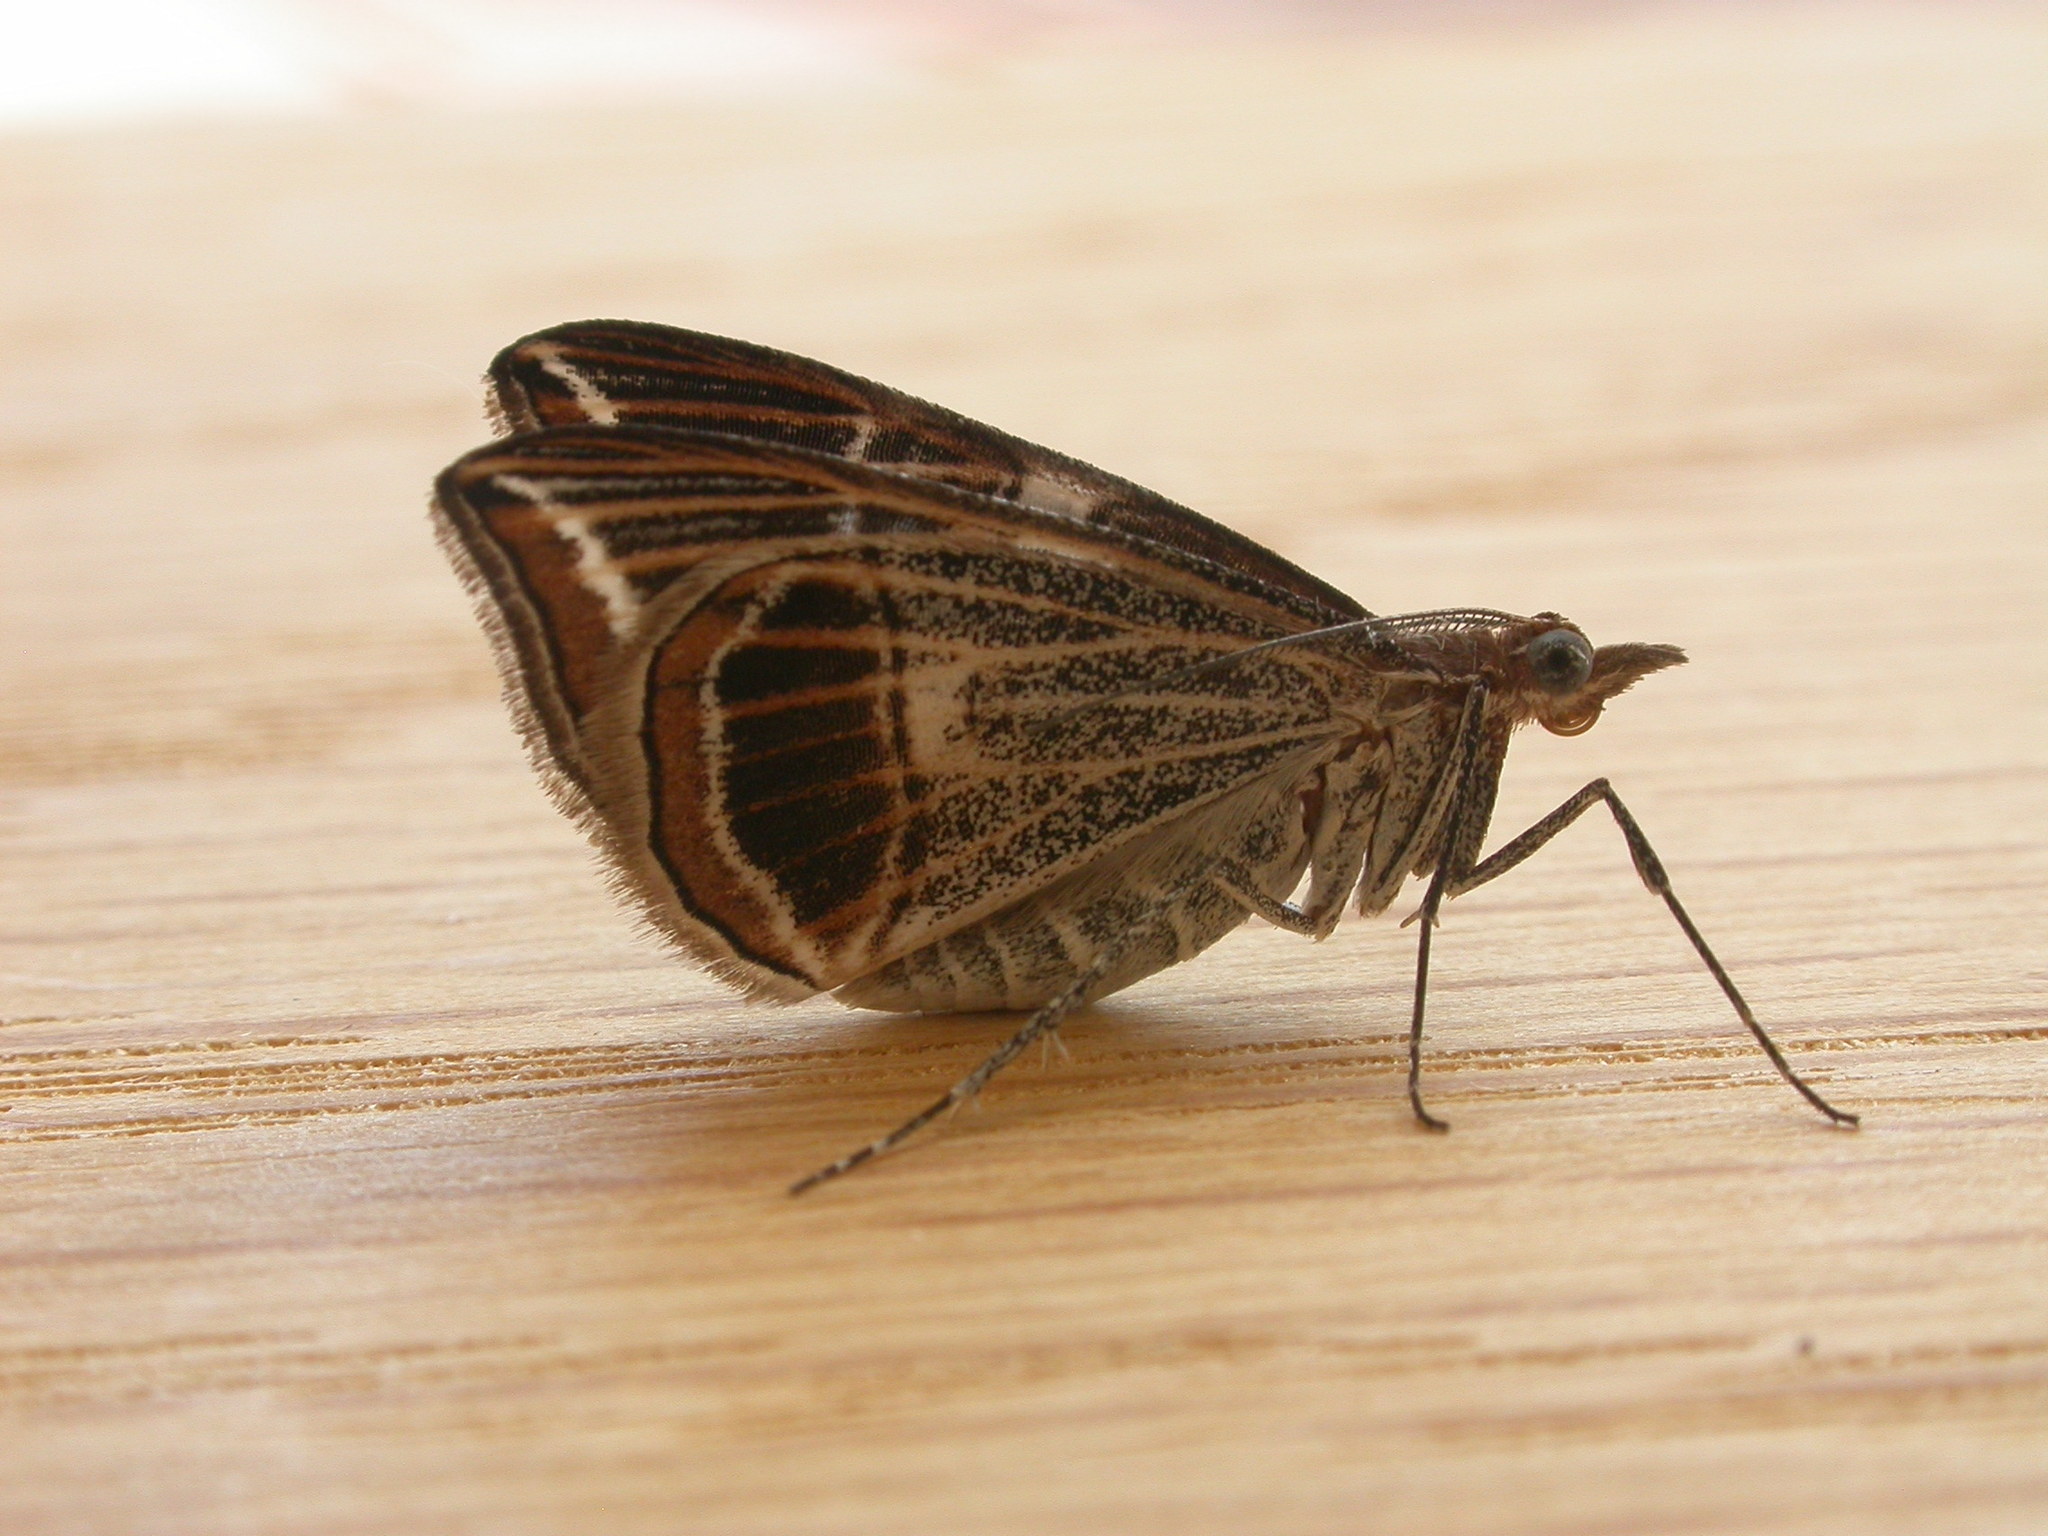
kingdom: Animalia
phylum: Arthropoda
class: Insecta
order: Lepidoptera
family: Geometridae
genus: Phrataria
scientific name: Phrataria transcissata
